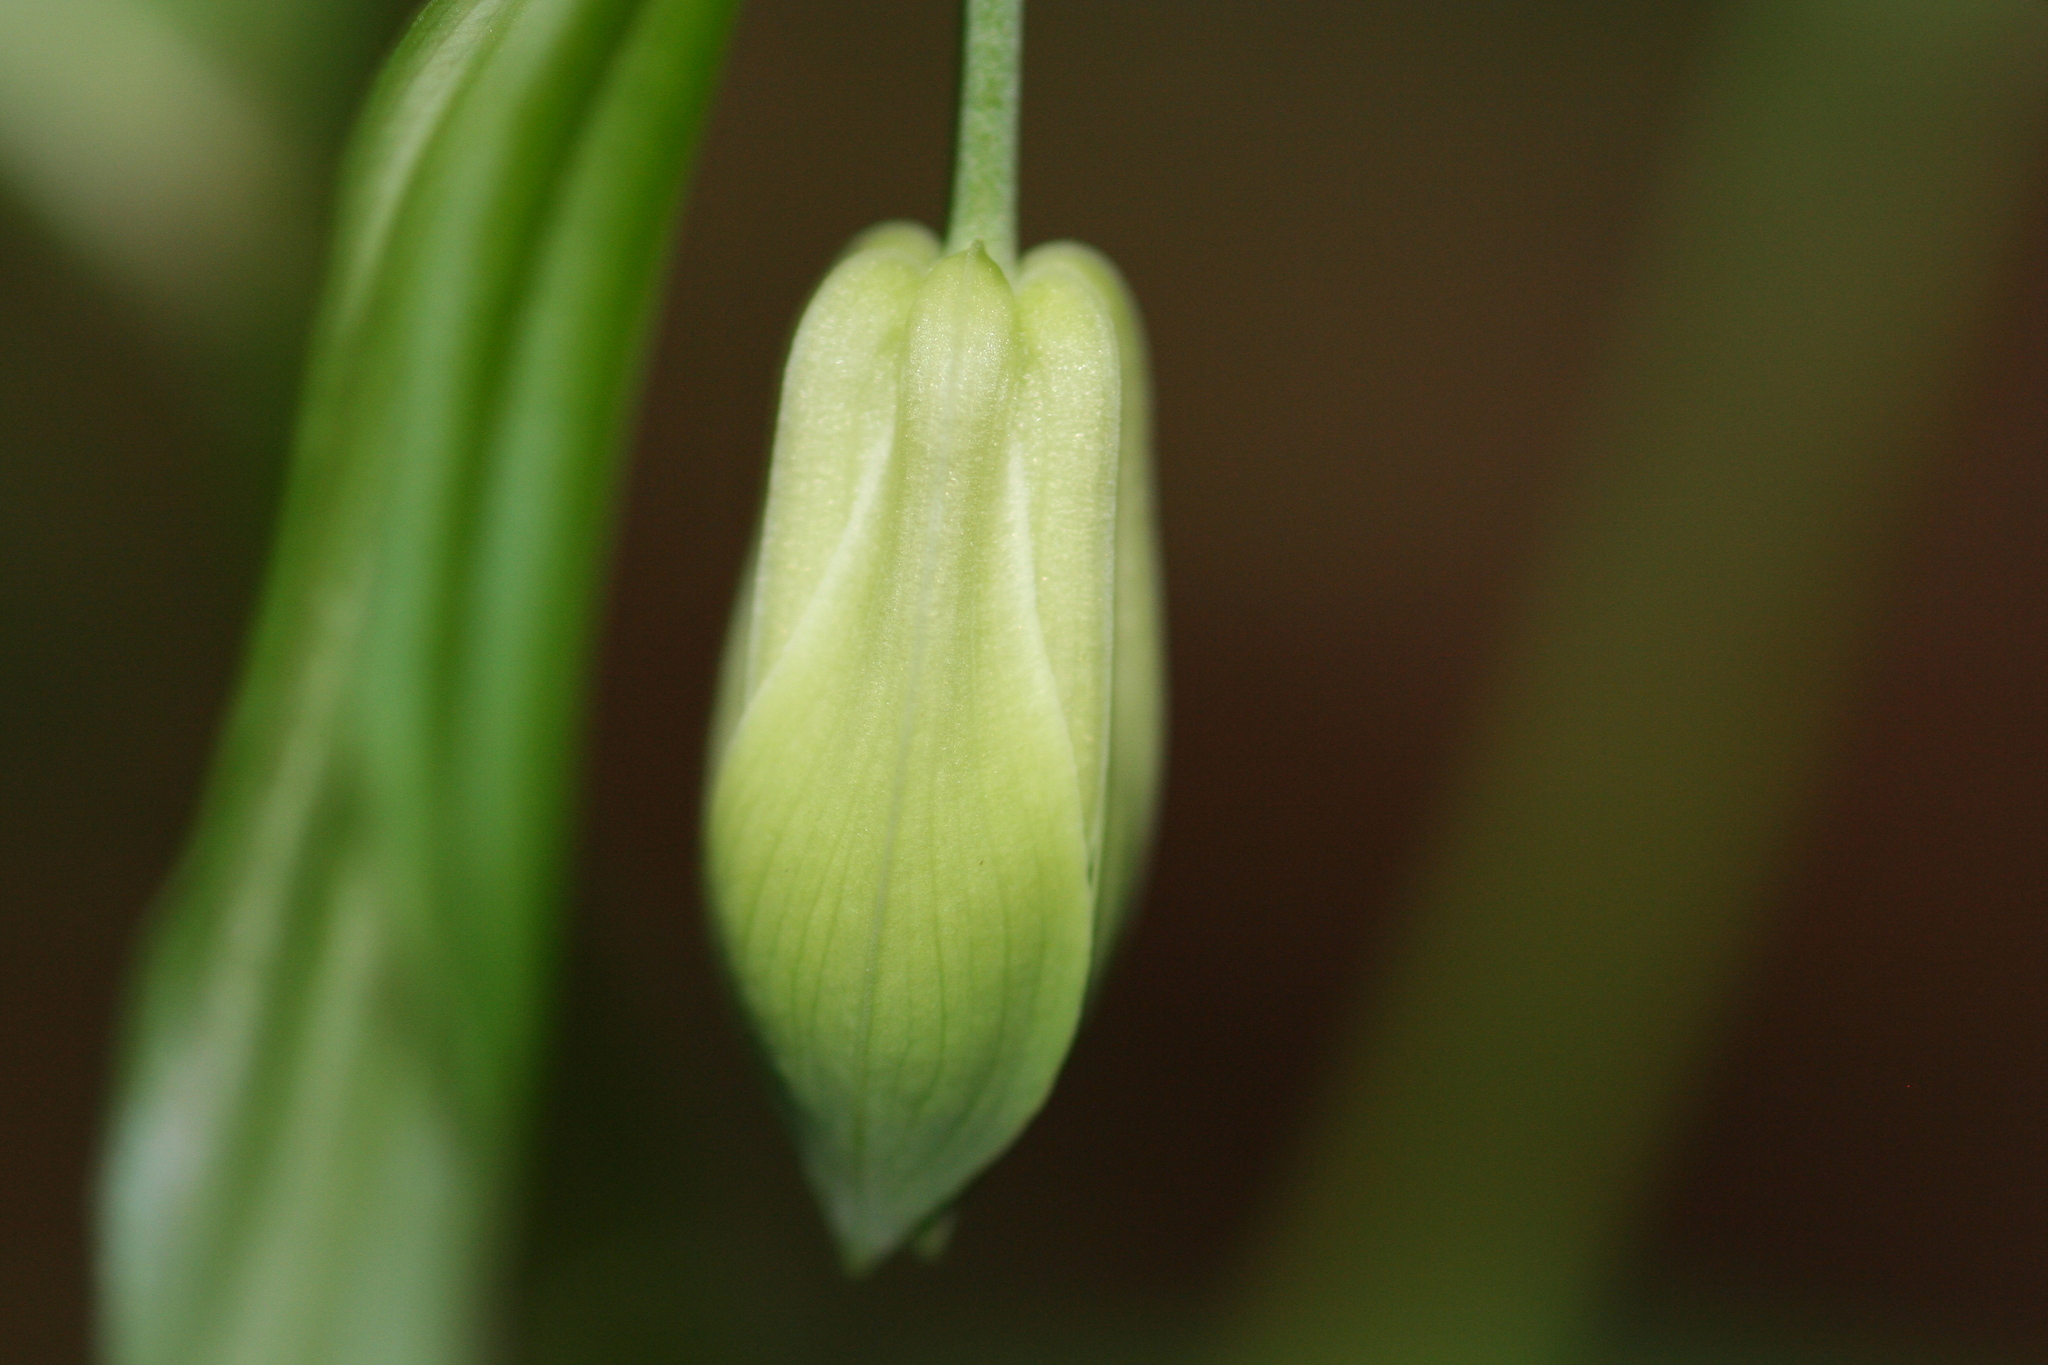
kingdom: Plantae
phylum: Tracheophyta
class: Liliopsida
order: Liliales
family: Colchicaceae
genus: Disporum
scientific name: Disporum sessile
